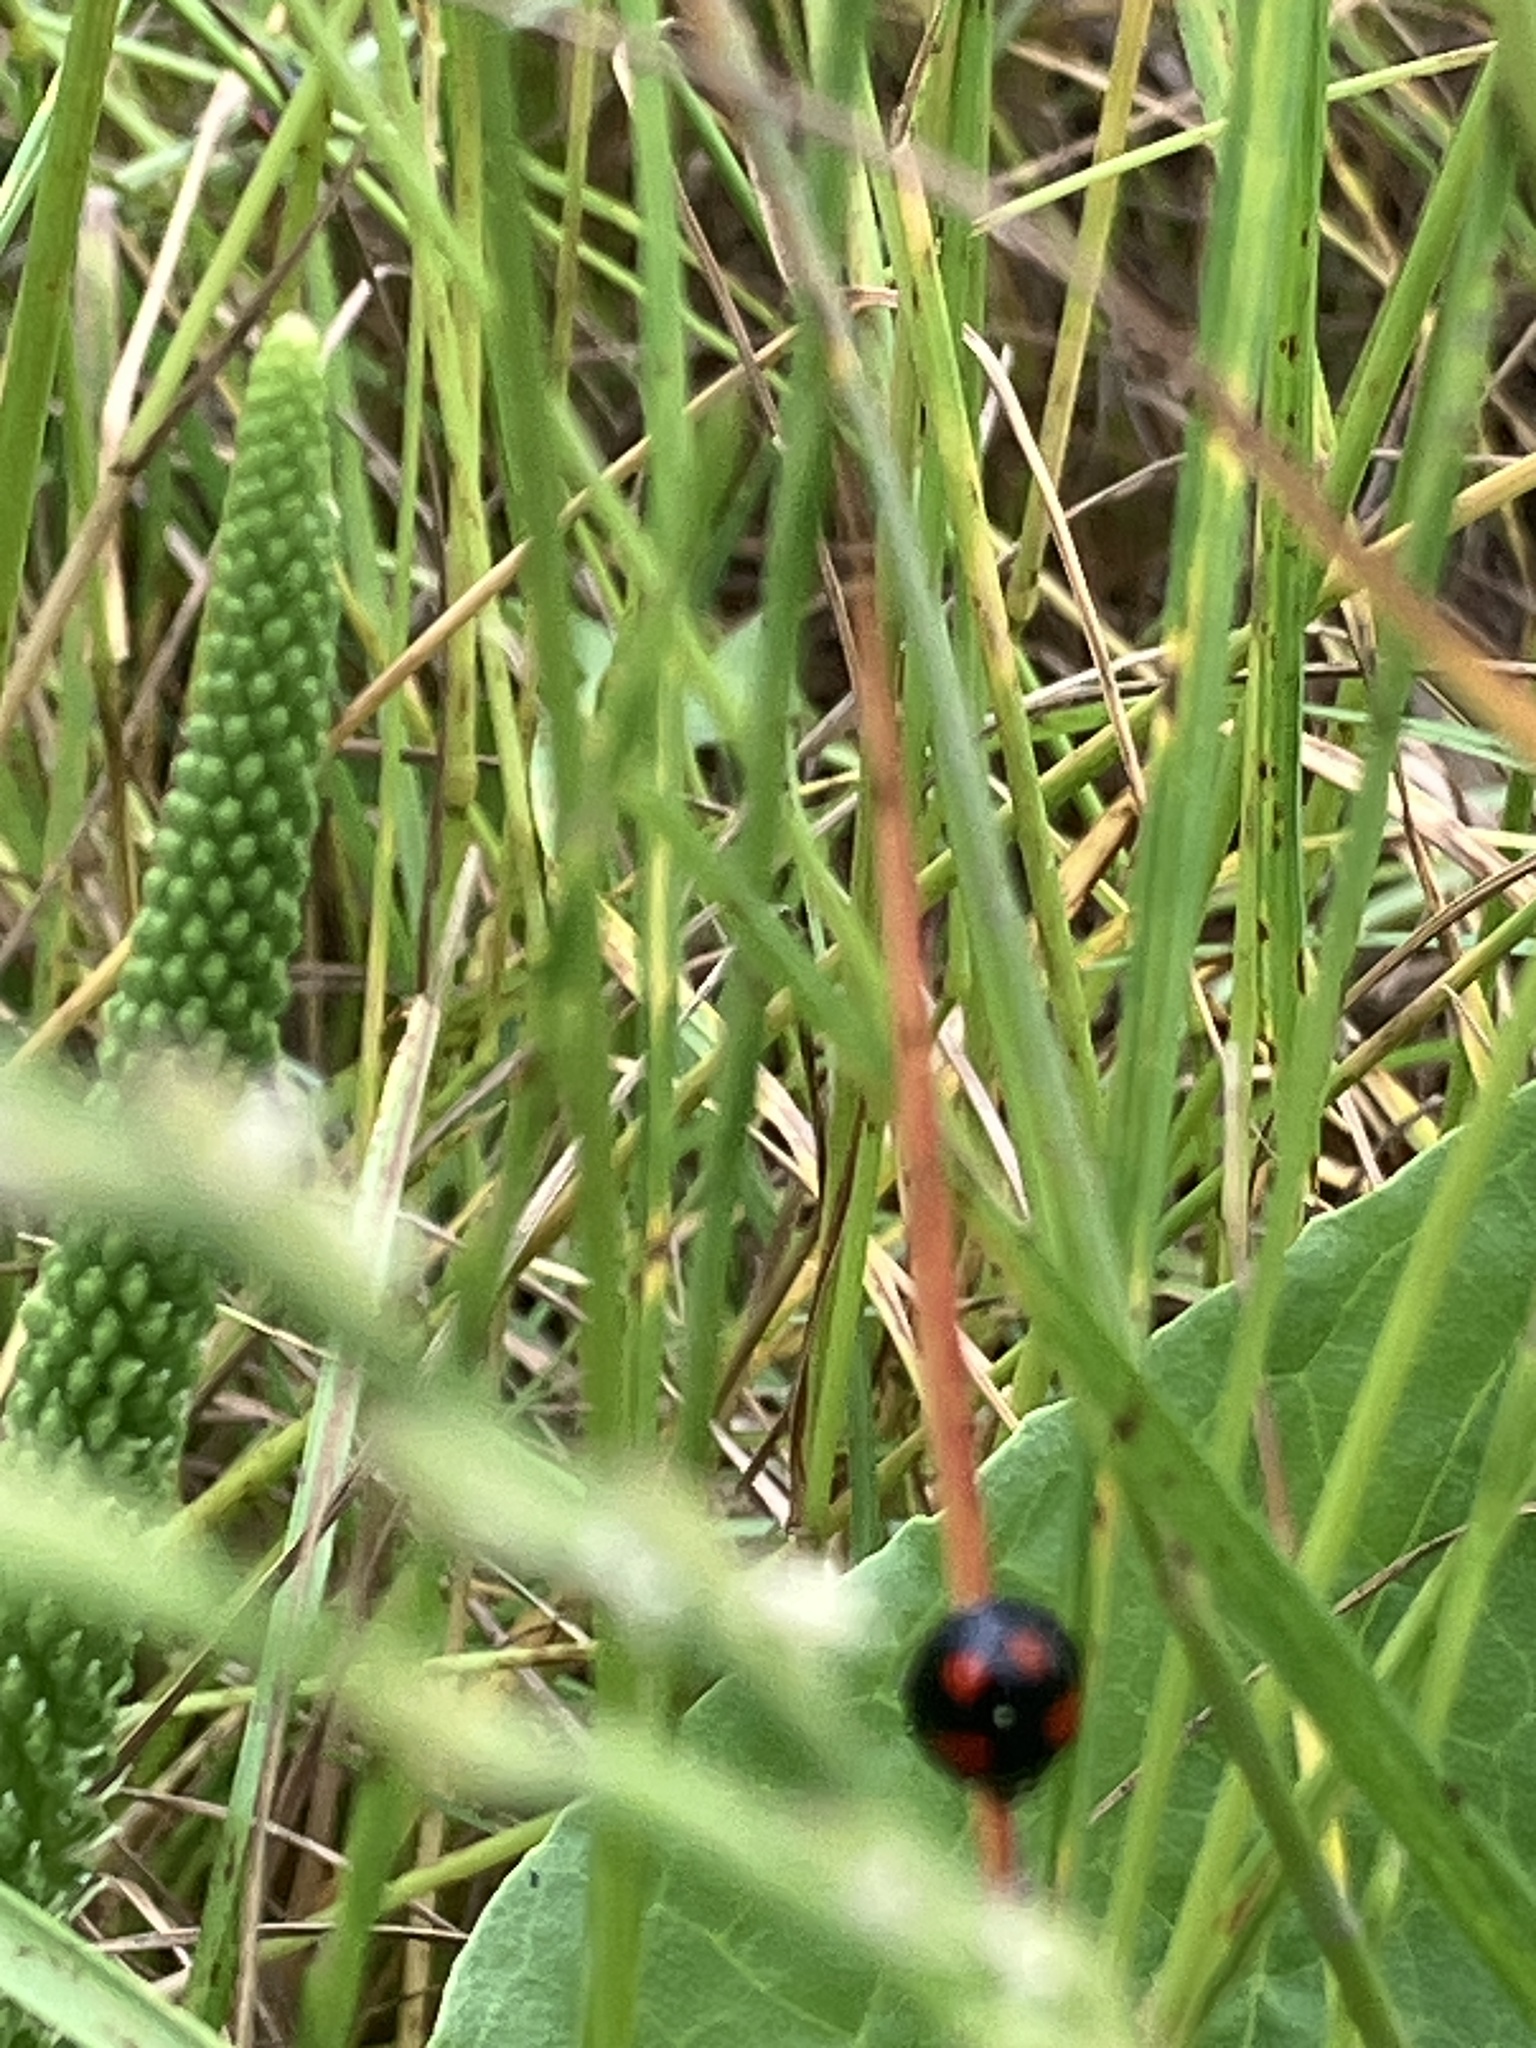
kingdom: Animalia
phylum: Arthropoda
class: Insecta
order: Coleoptera
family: Coccinellidae
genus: Harmonia
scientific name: Harmonia axyridis
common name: Harlequin ladybird
